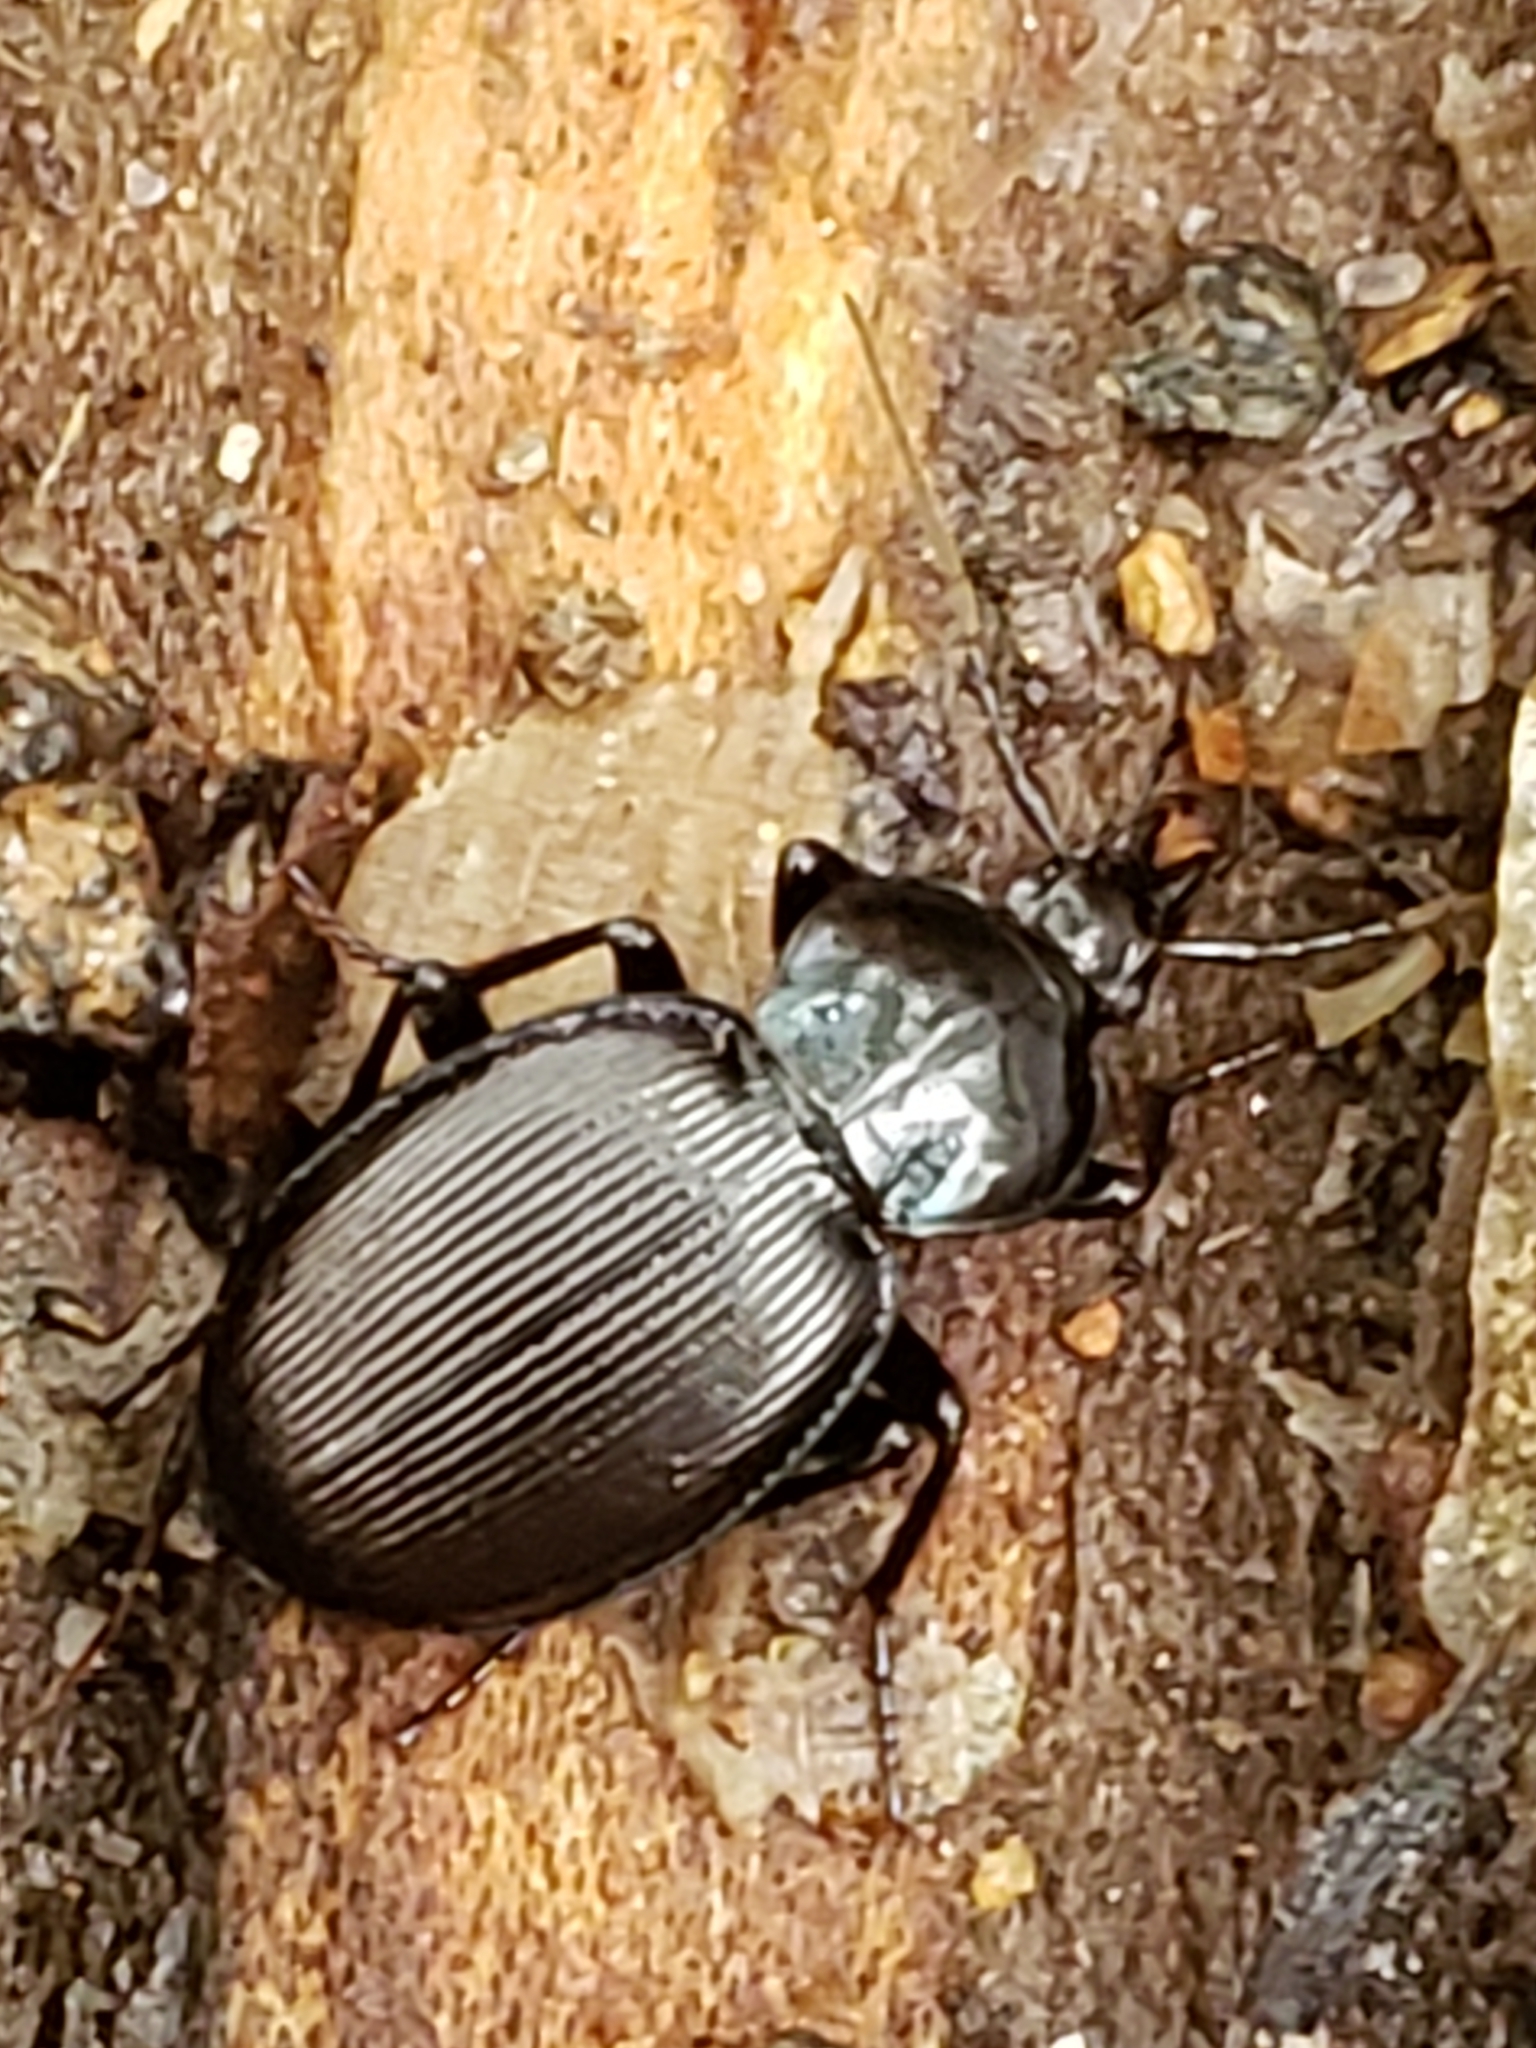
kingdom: Animalia
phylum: Arthropoda
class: Insecta
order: Coleoptera
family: Carabidae
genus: Sphaeroderus
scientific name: Sphaeroderus stenostomus
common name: Small snail-eating ground beetle
